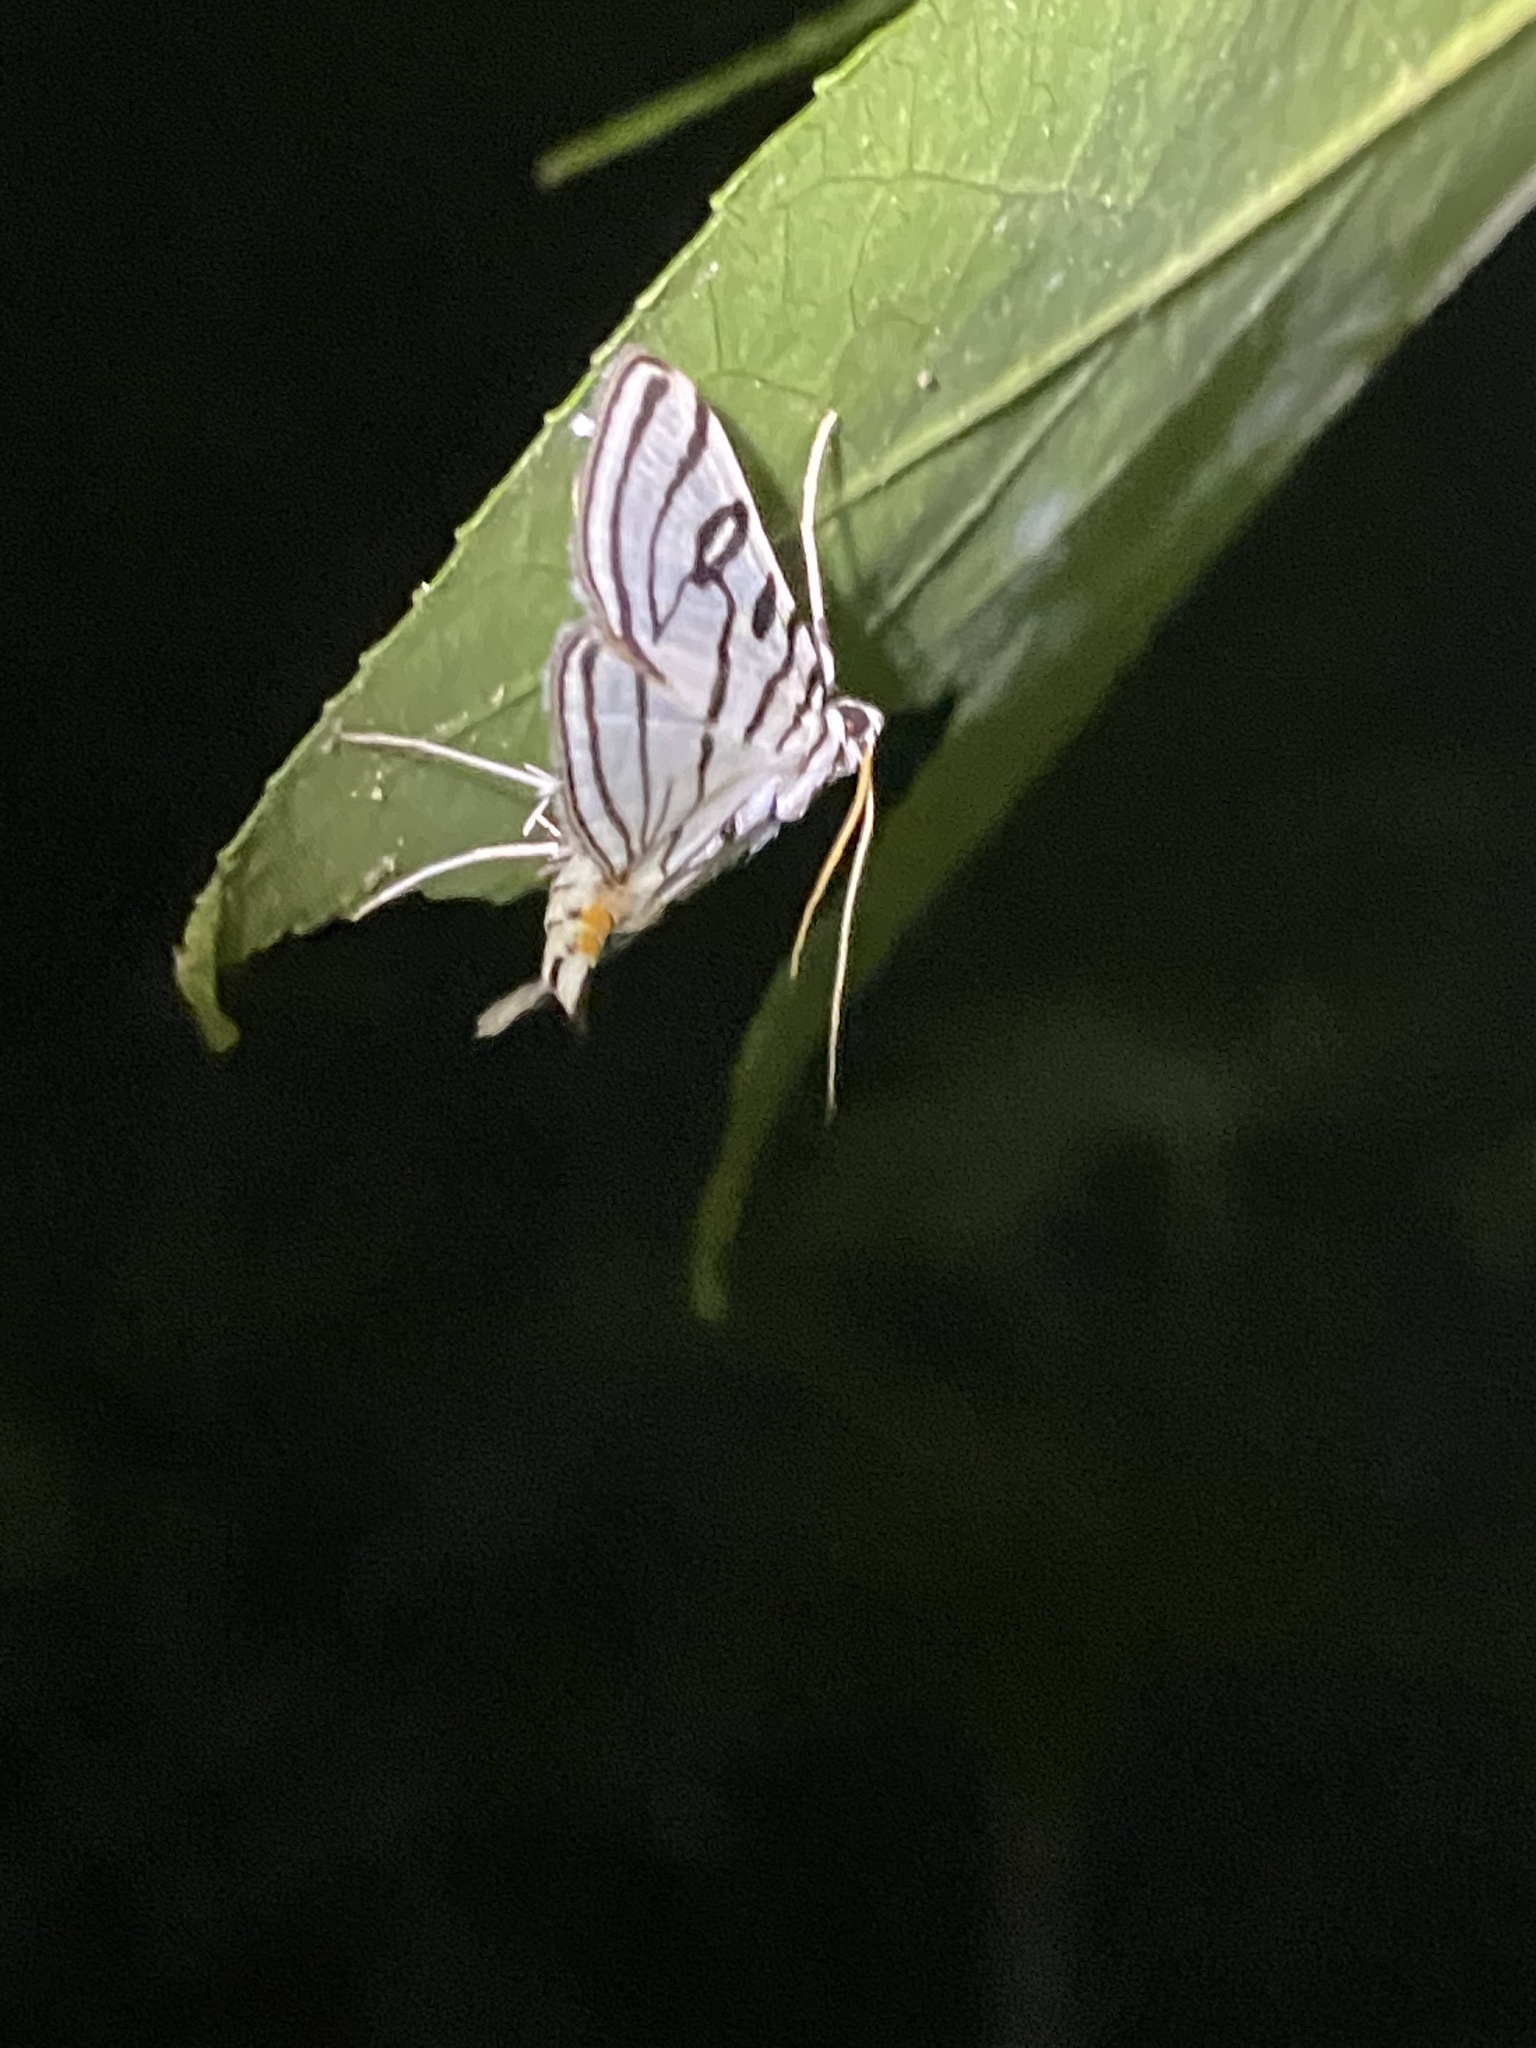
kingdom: Animalia
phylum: Arthropoda
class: Insecta
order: Lepidoptera
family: Crambidae
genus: Conchylodes
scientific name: Conchylodes ovulalis
